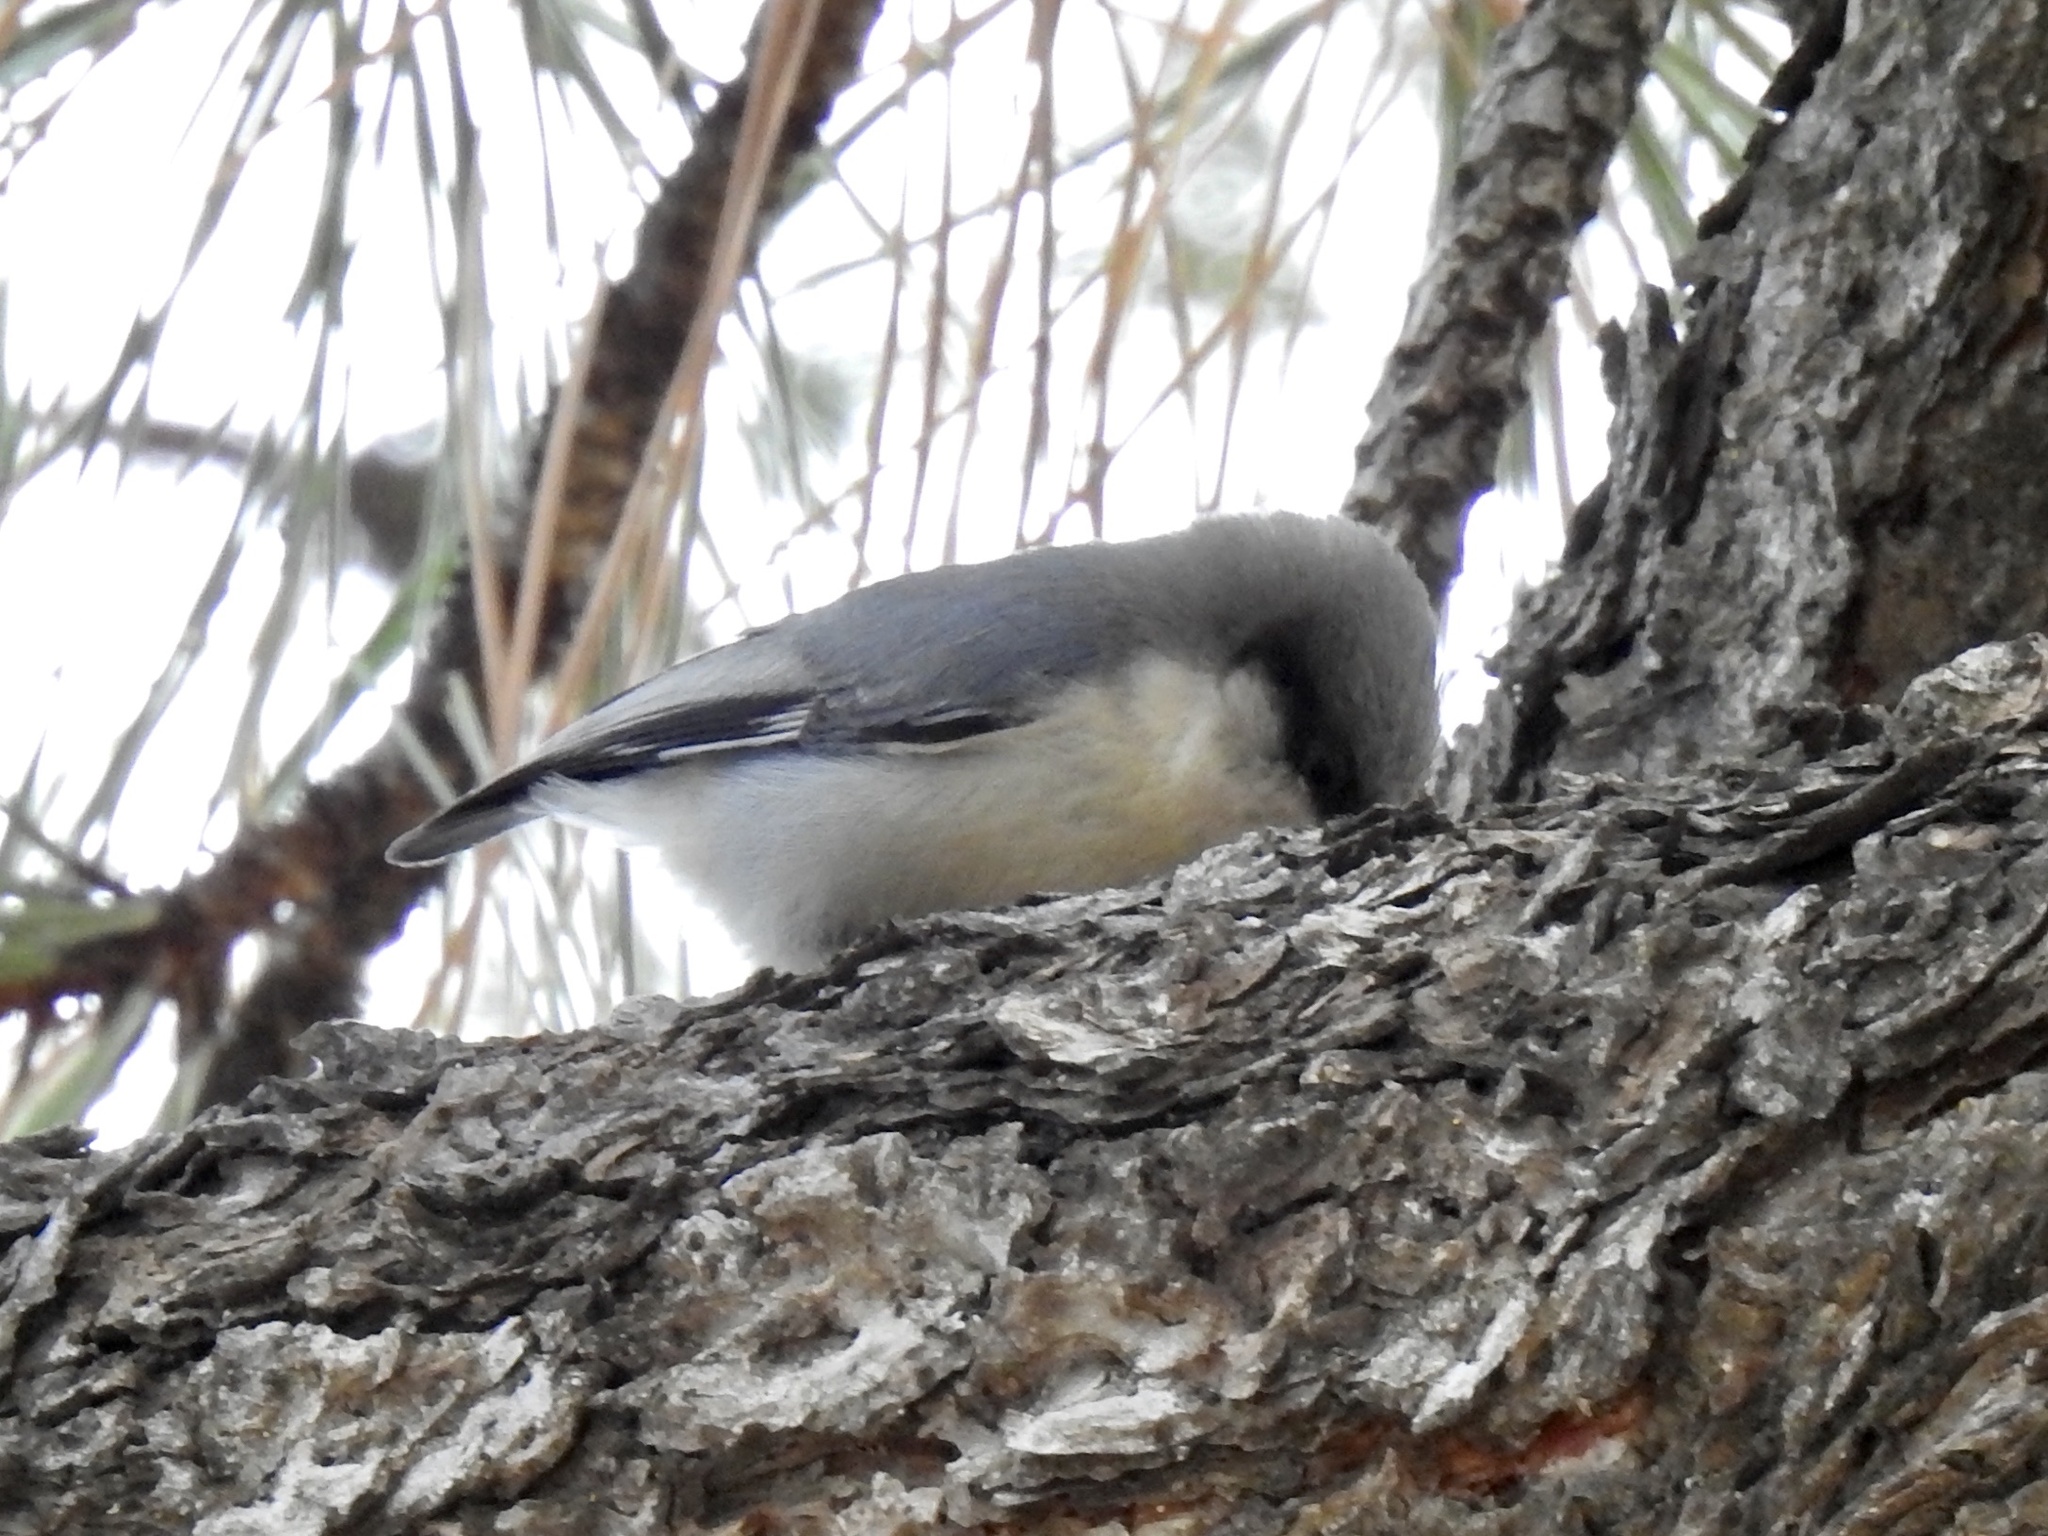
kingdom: Animalia
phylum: Chordata
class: Aves
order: Passeriformes
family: Sittidae
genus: Sitta
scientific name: Sitta pygmaea
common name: Pygmy nuthatch
